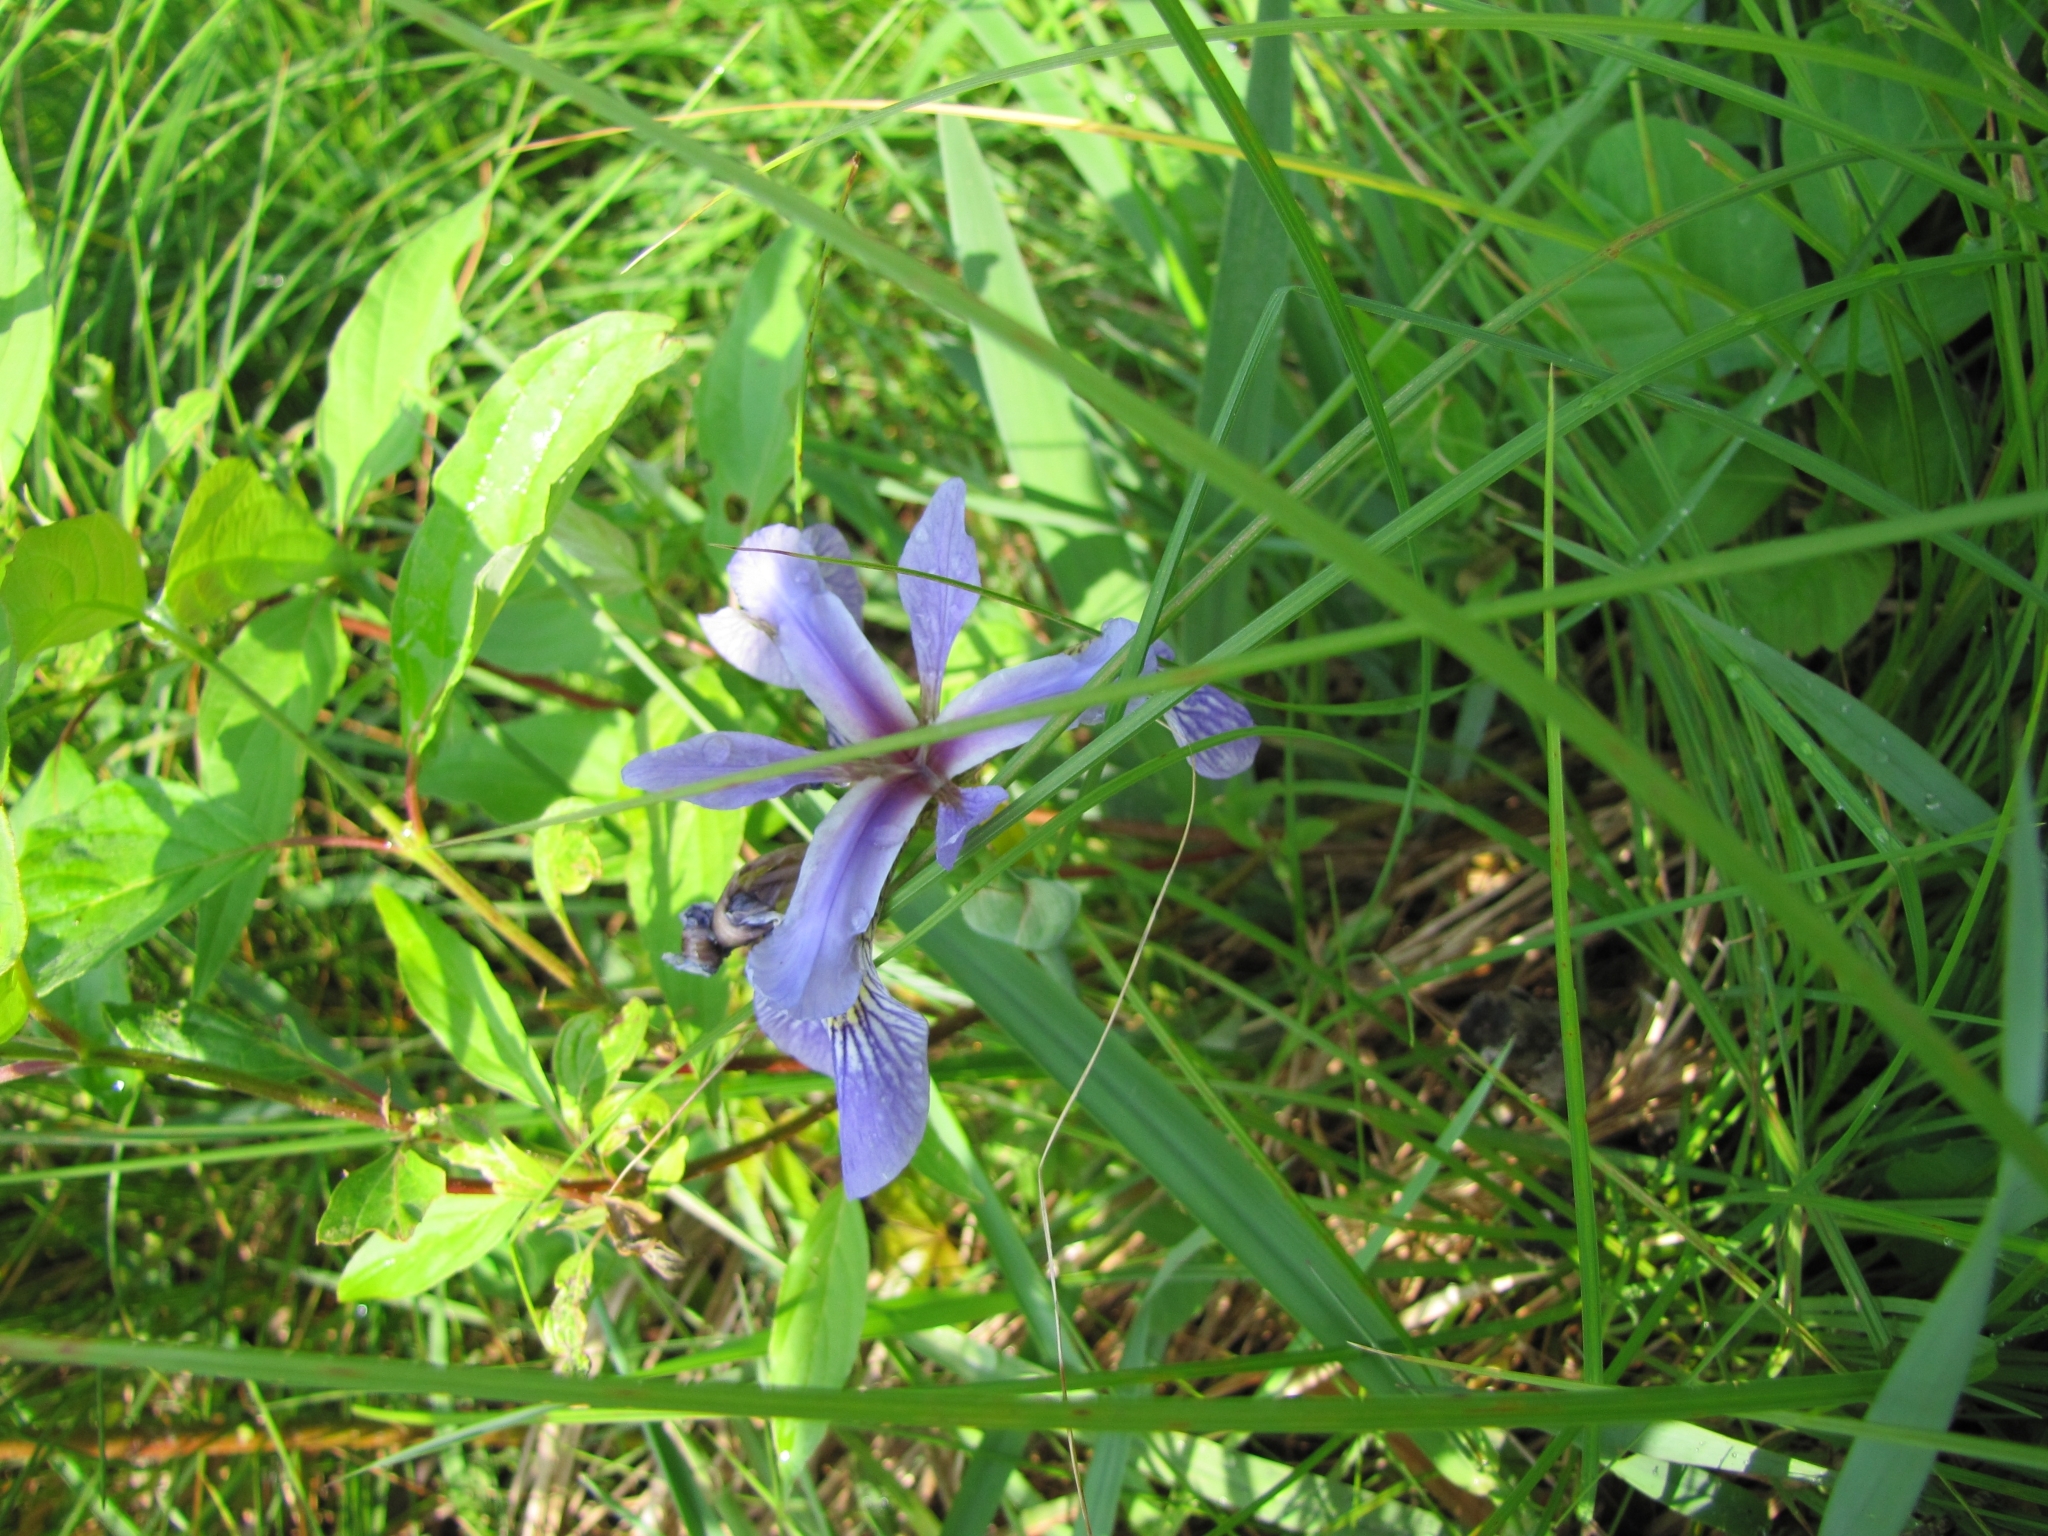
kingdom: Plantae
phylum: Tracheophyta
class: Liliopsida
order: Asparagales
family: Iridaceae
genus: Iris
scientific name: Iris versicolor
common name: Purple iris
